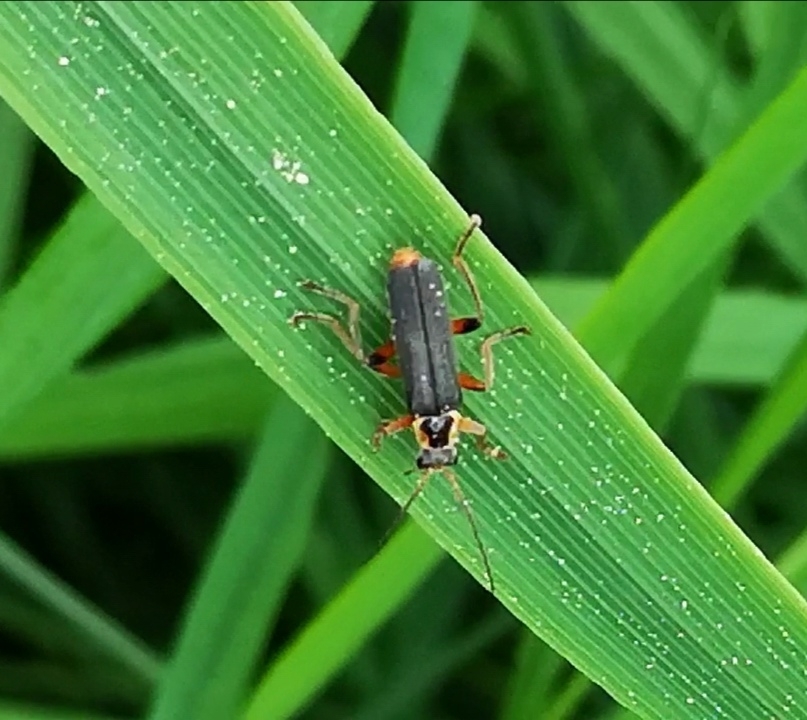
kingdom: Animalia
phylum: Arthropoda
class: Insecta
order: Coleoptera
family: Cantharidae
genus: Cantharis
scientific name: Cantharis nigricans
